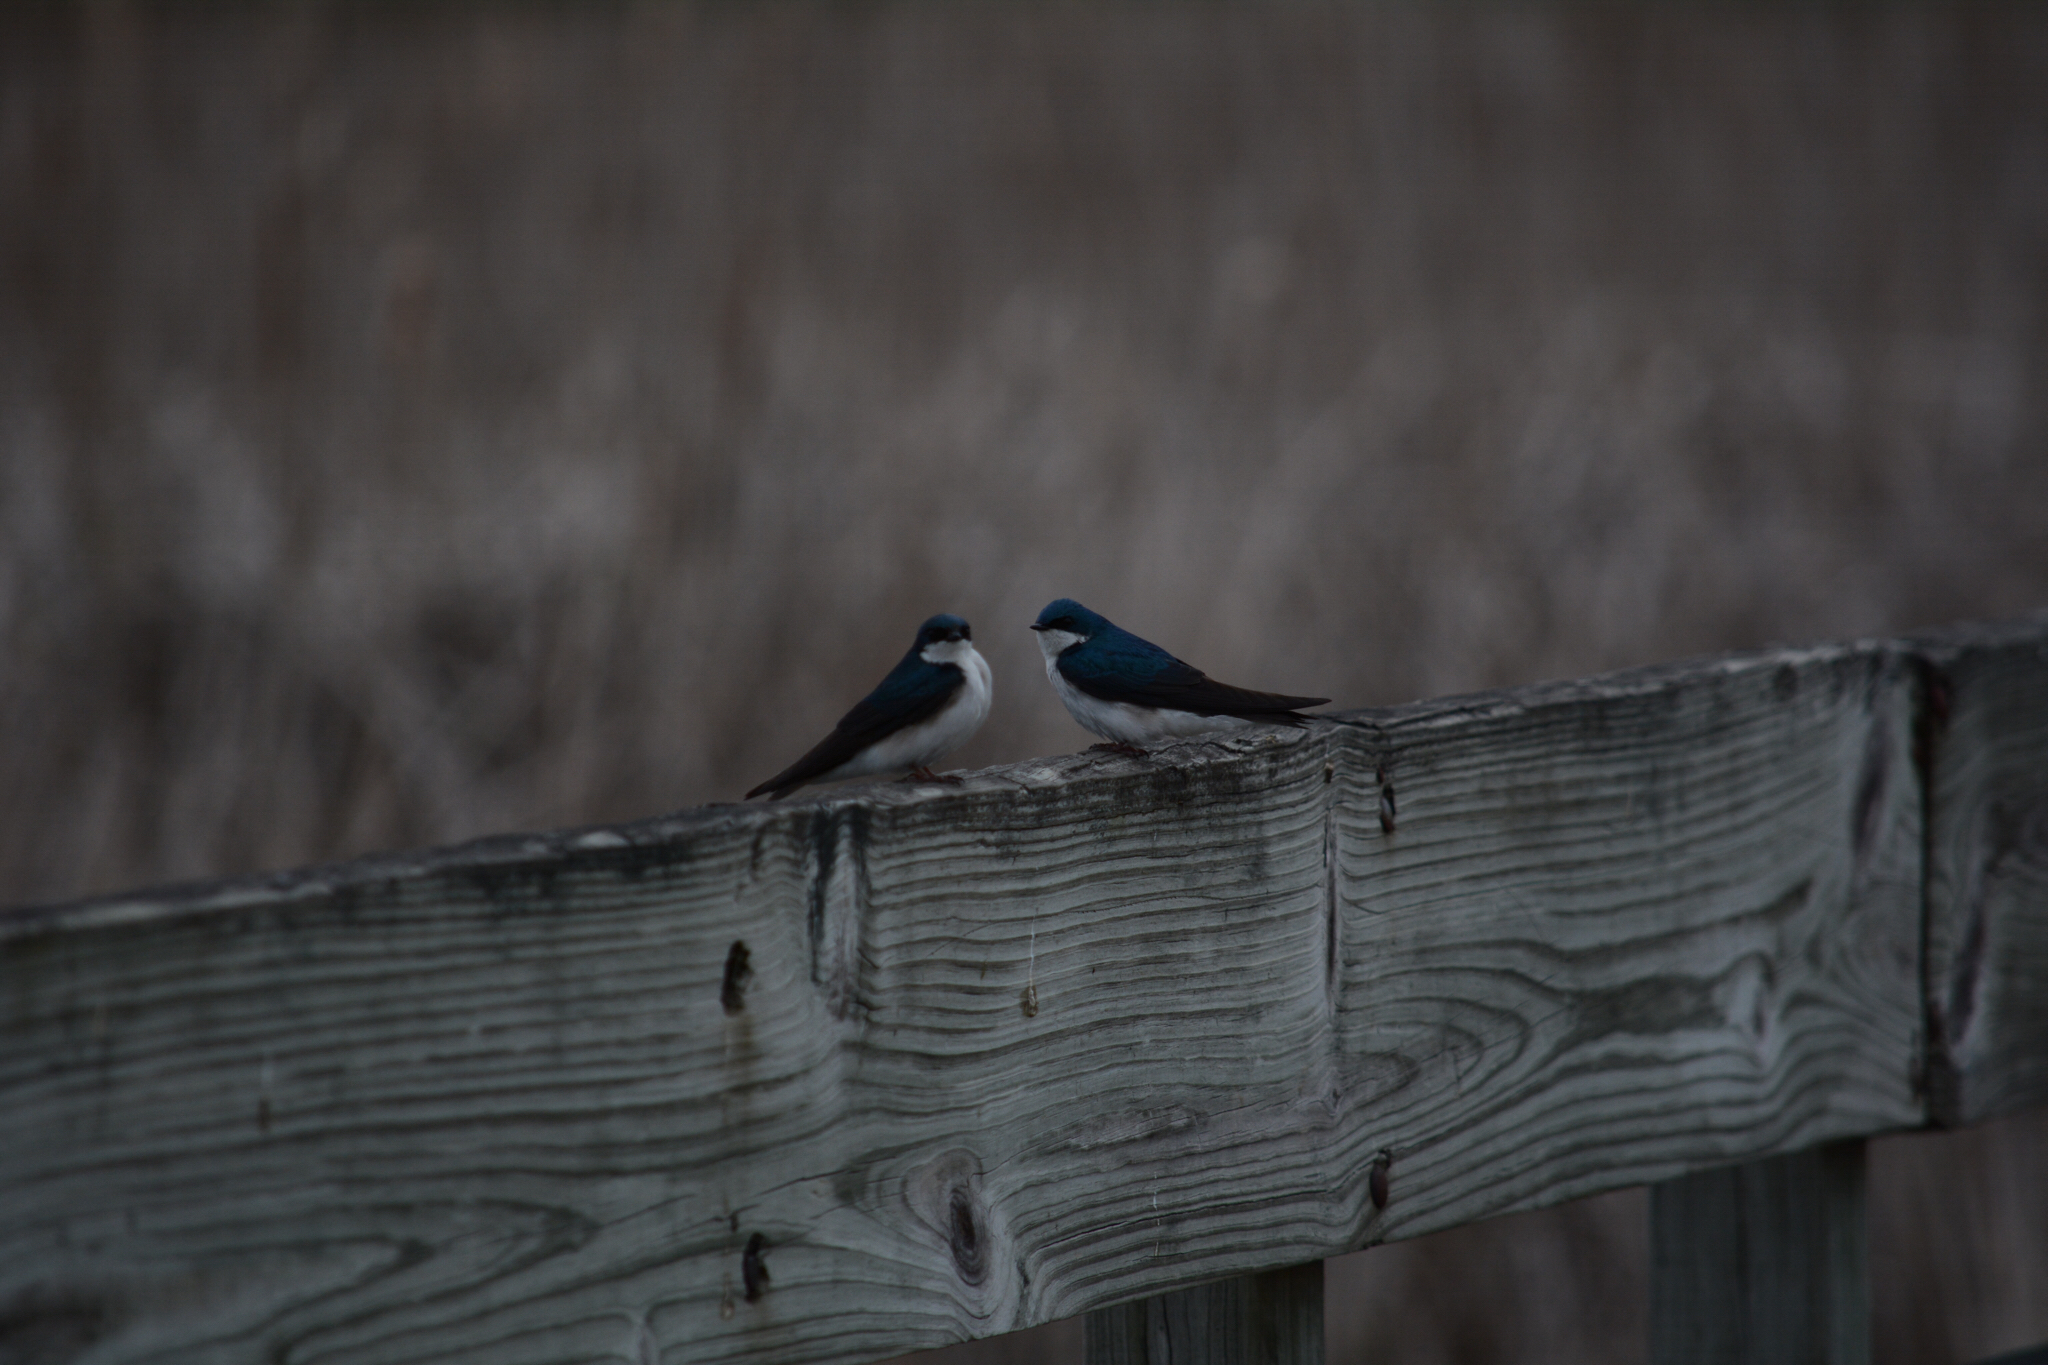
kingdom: Animalia
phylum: Chordata
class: Aves
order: Passeriformes
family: Hirundinidae
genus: Tachycineta
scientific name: Tachycineta bicolor
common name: Tree swallow
